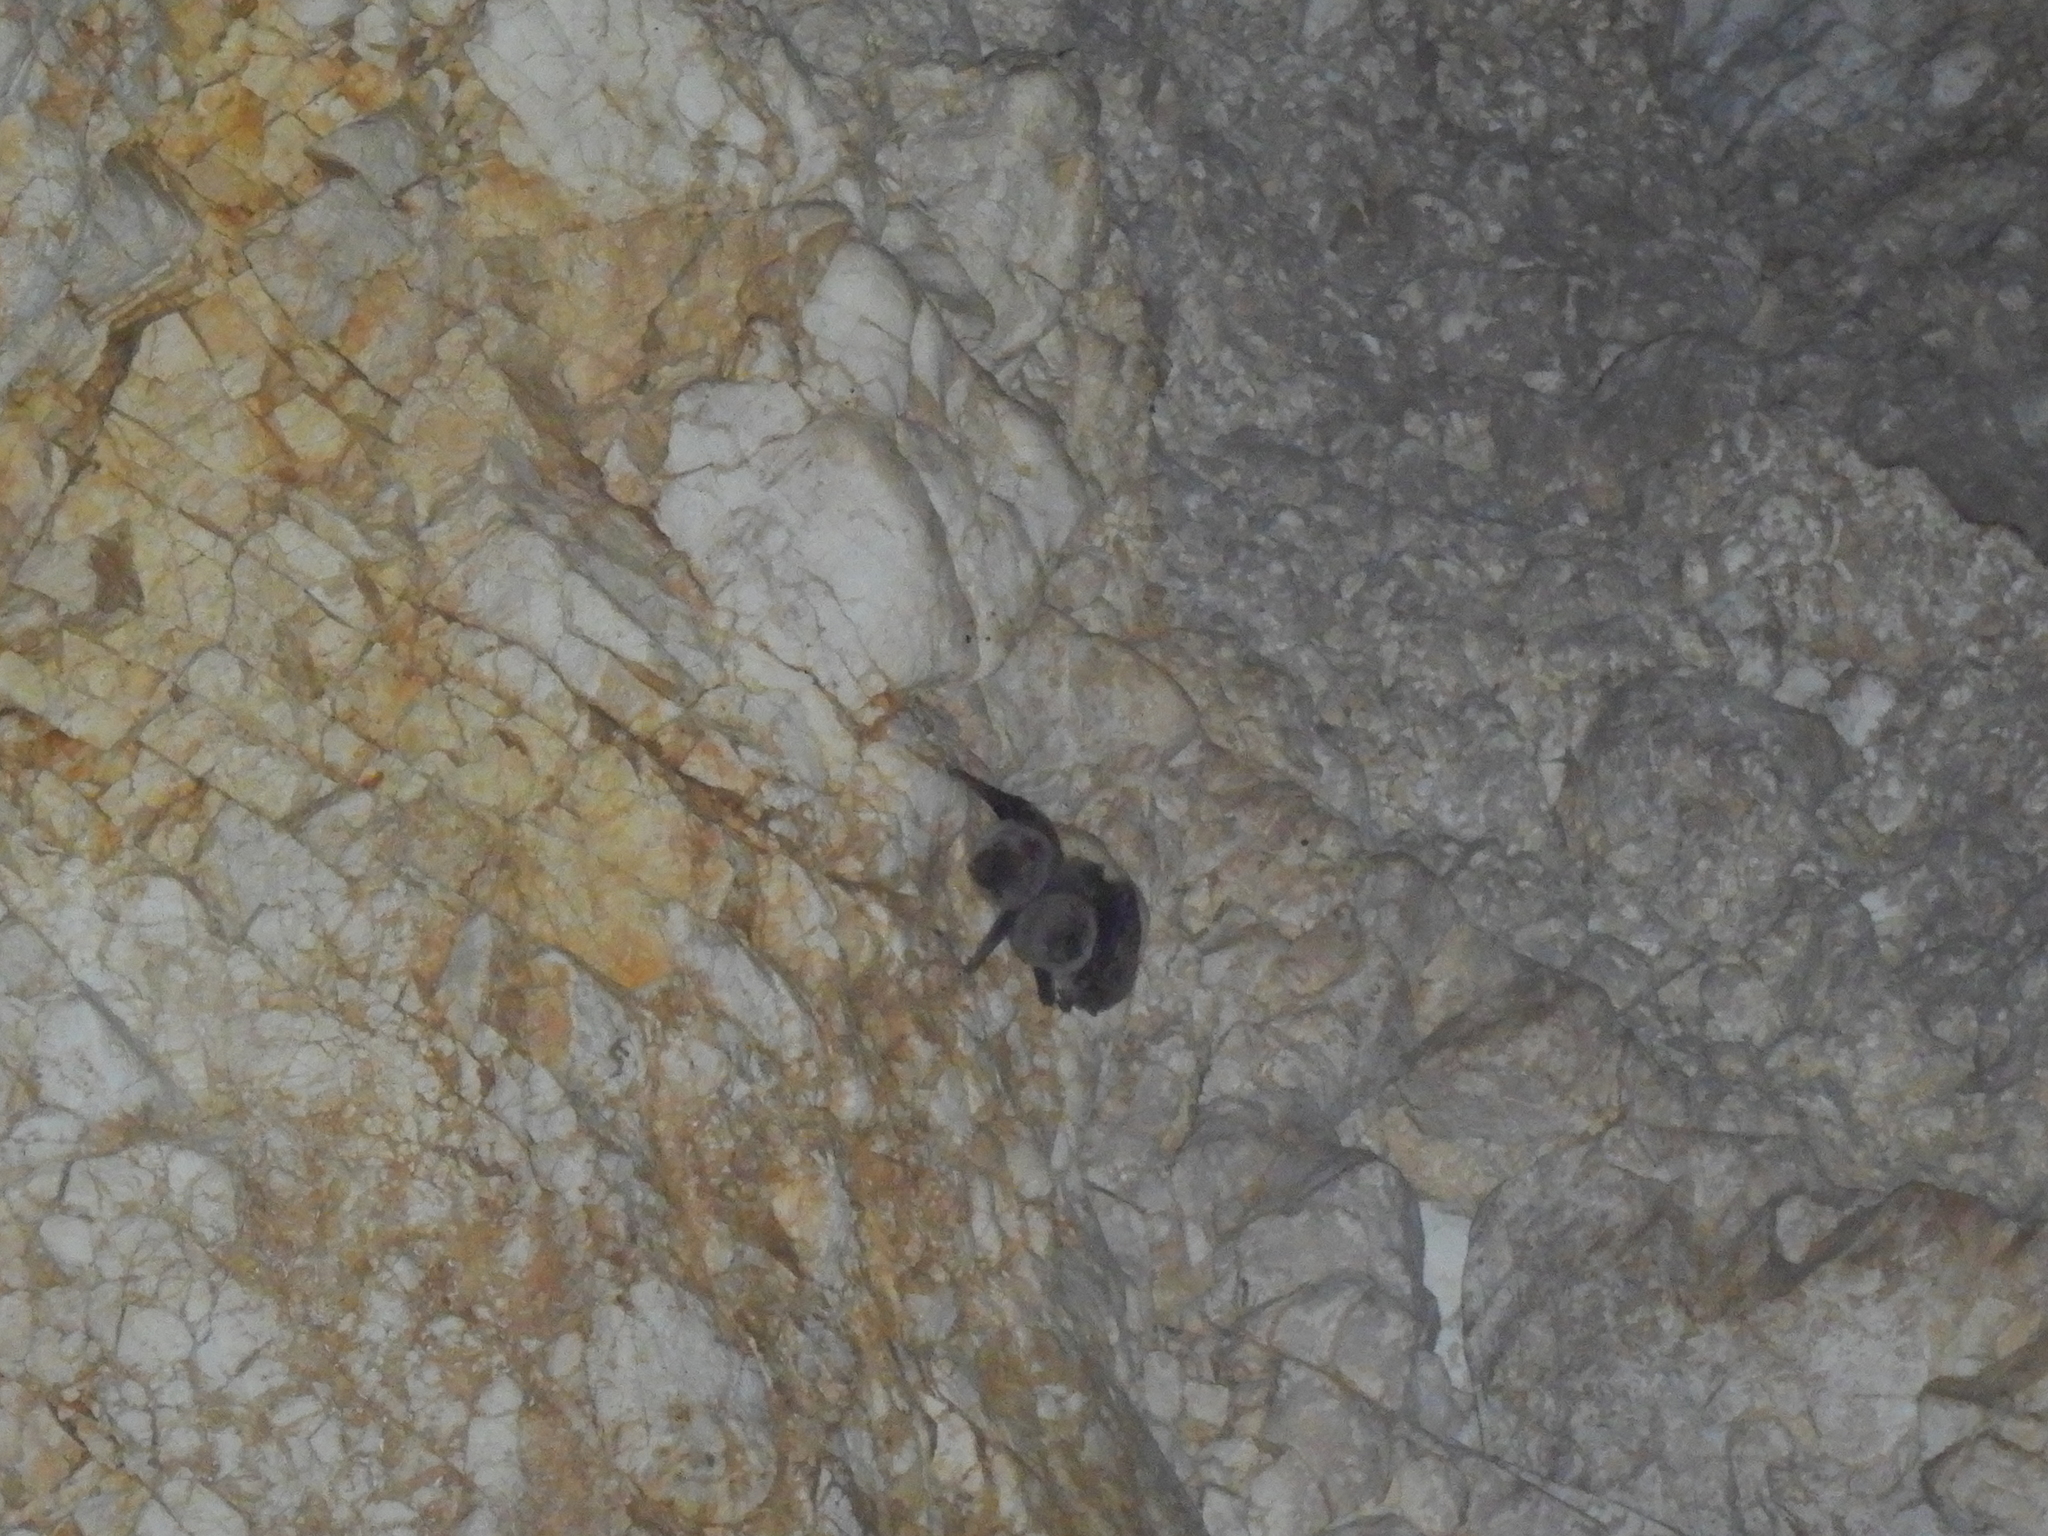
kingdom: Animalia
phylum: Chordata
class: Mammalia
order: Chiroptera
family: Miniopteridae
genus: Miniopterus
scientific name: Miniopterus schreibersii
